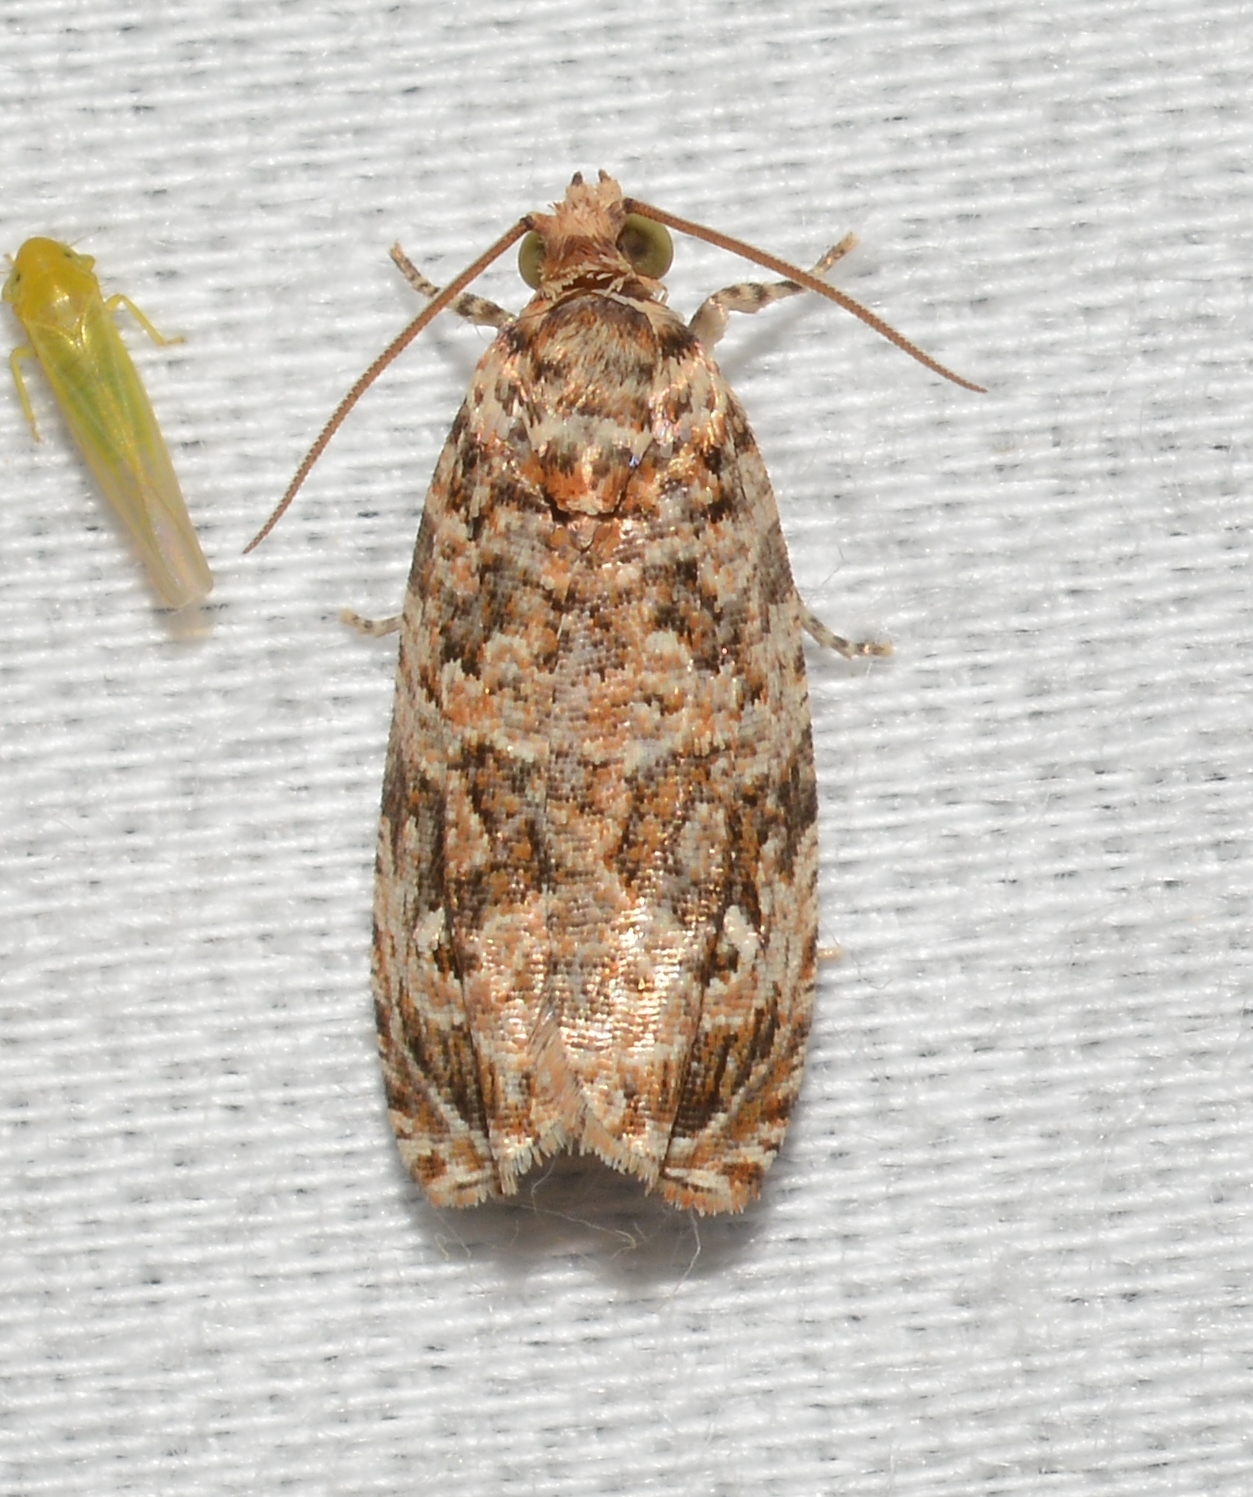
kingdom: Animalia
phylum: Arthropoda
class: Insecta
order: Lepidoptera
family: Tortricidae
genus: Phaecasiophora
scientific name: Phaecasiophora niveiguttana
